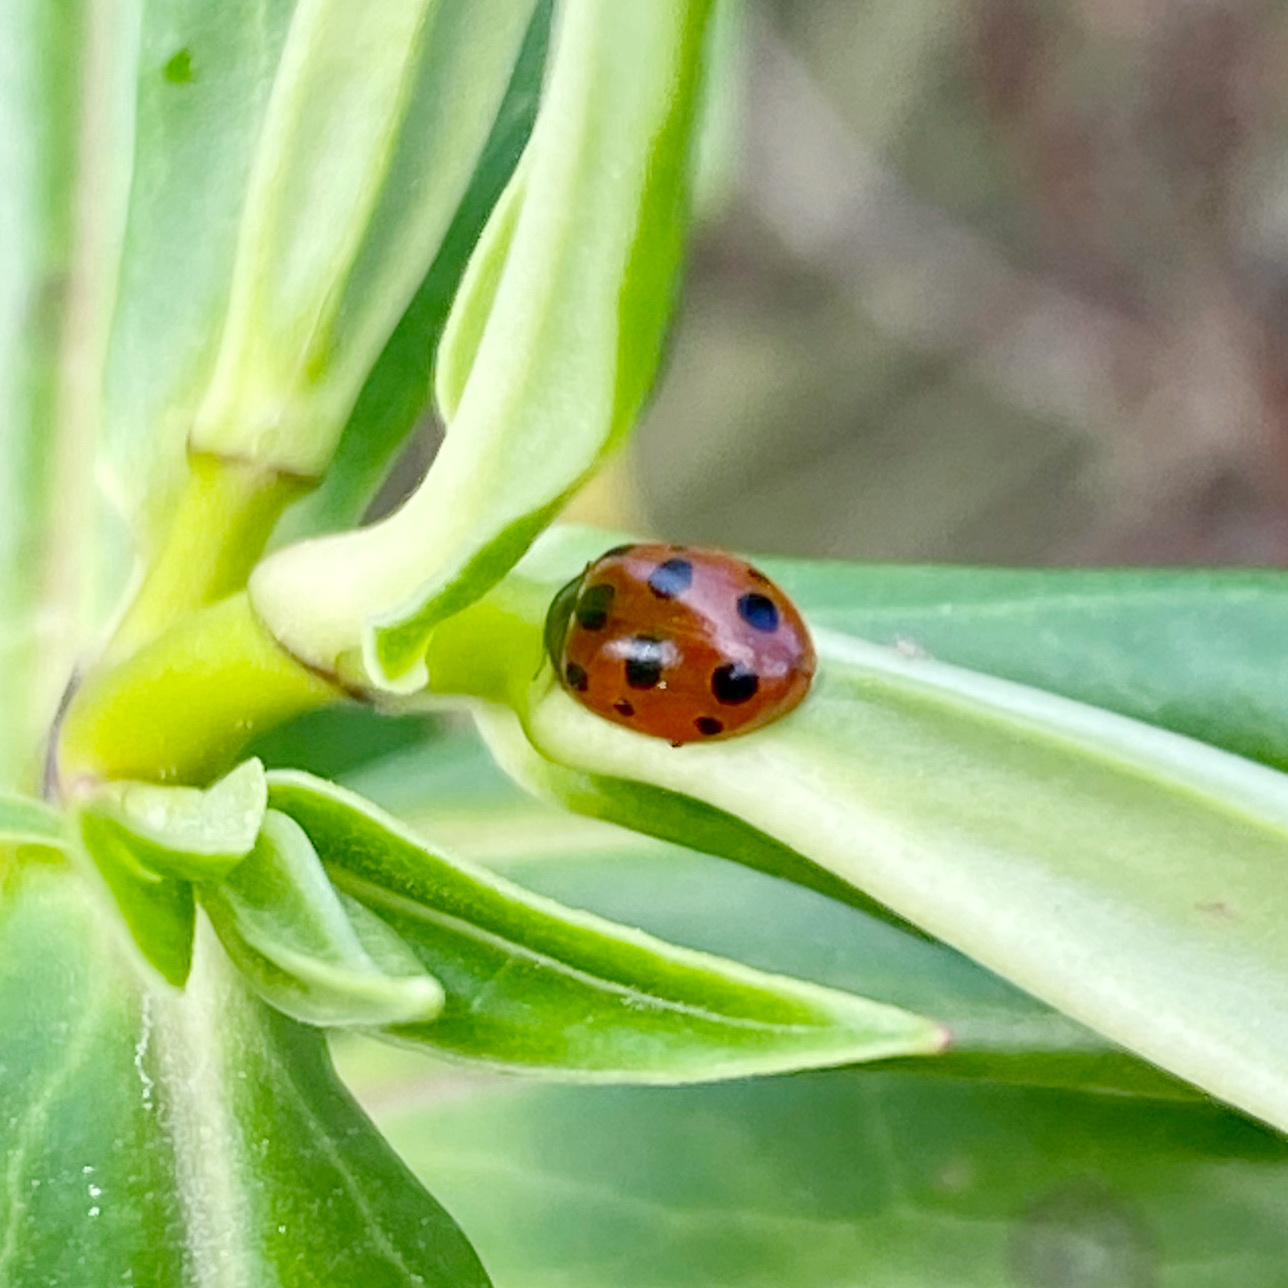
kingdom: Animalia
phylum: Arthropoda
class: Insecta
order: Coleoptera
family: Coccinellidae
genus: Coccinella
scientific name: Coccinella undecimpunctata
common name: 11-spot ladybird
